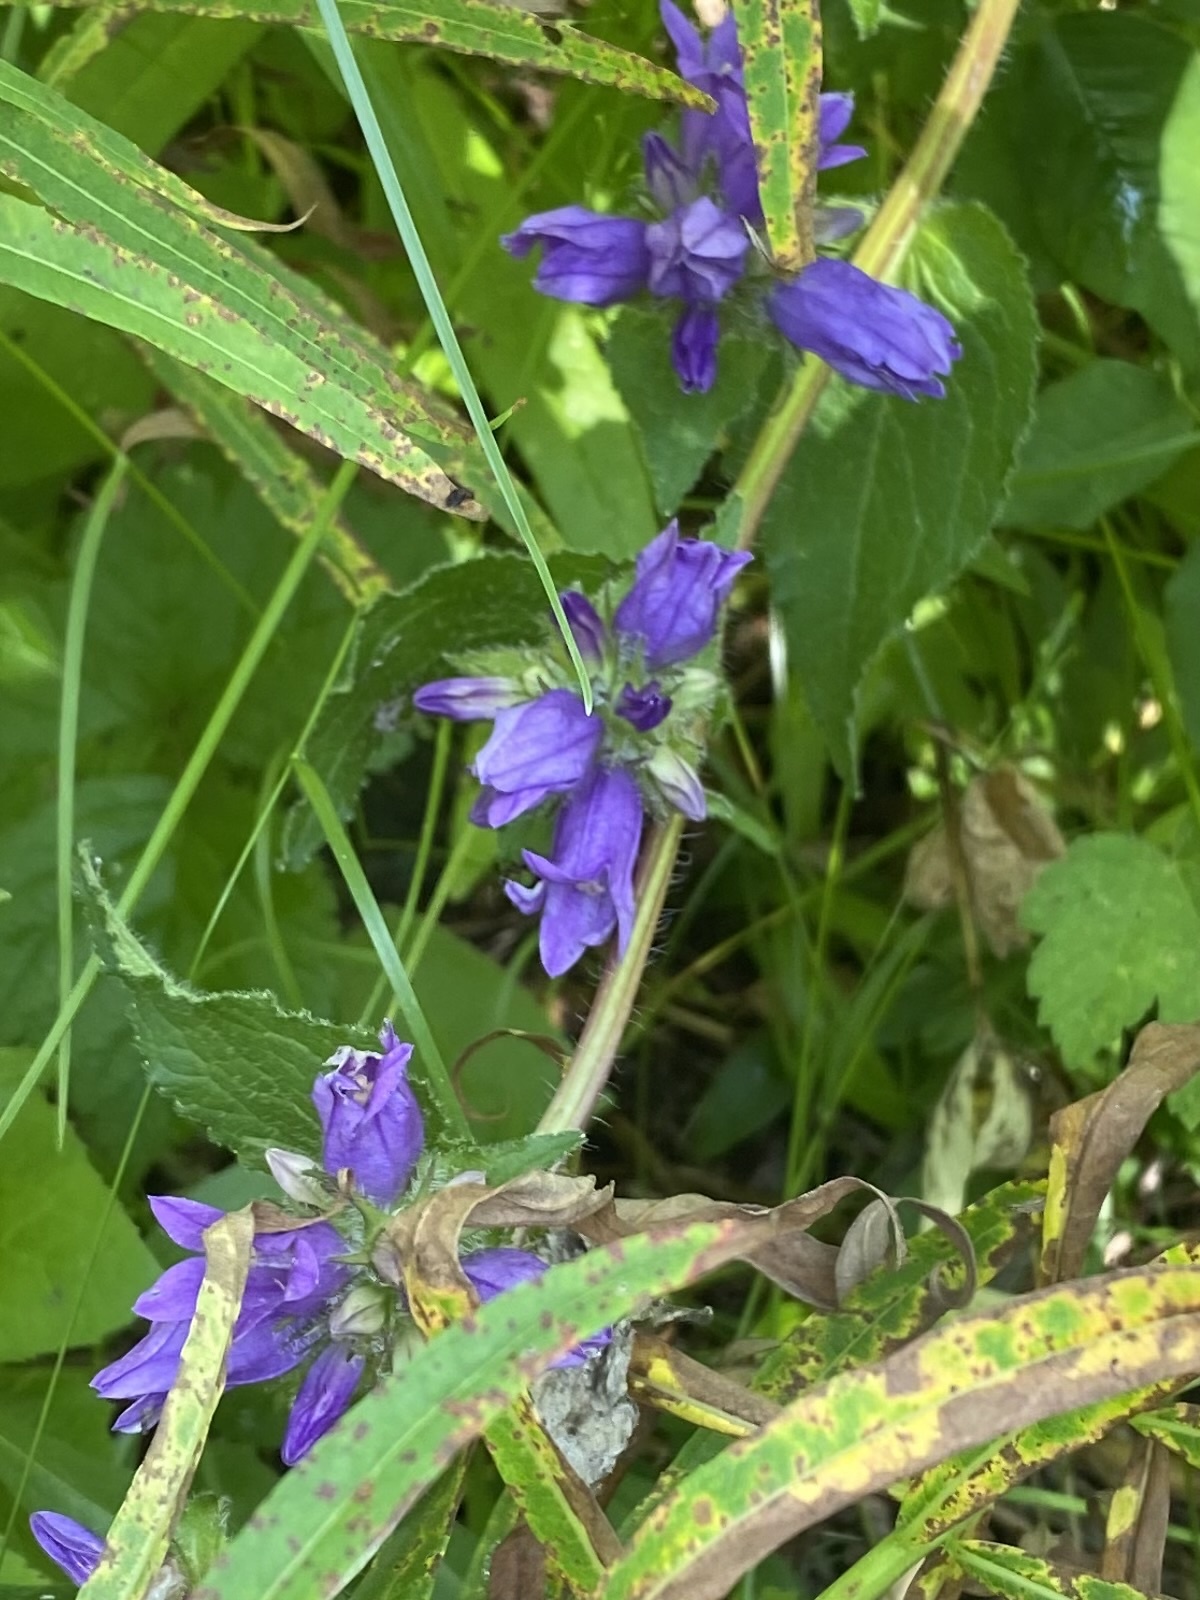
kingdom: Plantae
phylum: Tracheophyta
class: Magnoliopsida
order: Asterales
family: Campanulaceae
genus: Campanula
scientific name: Campanula glomerata
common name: Clustered bellflower
